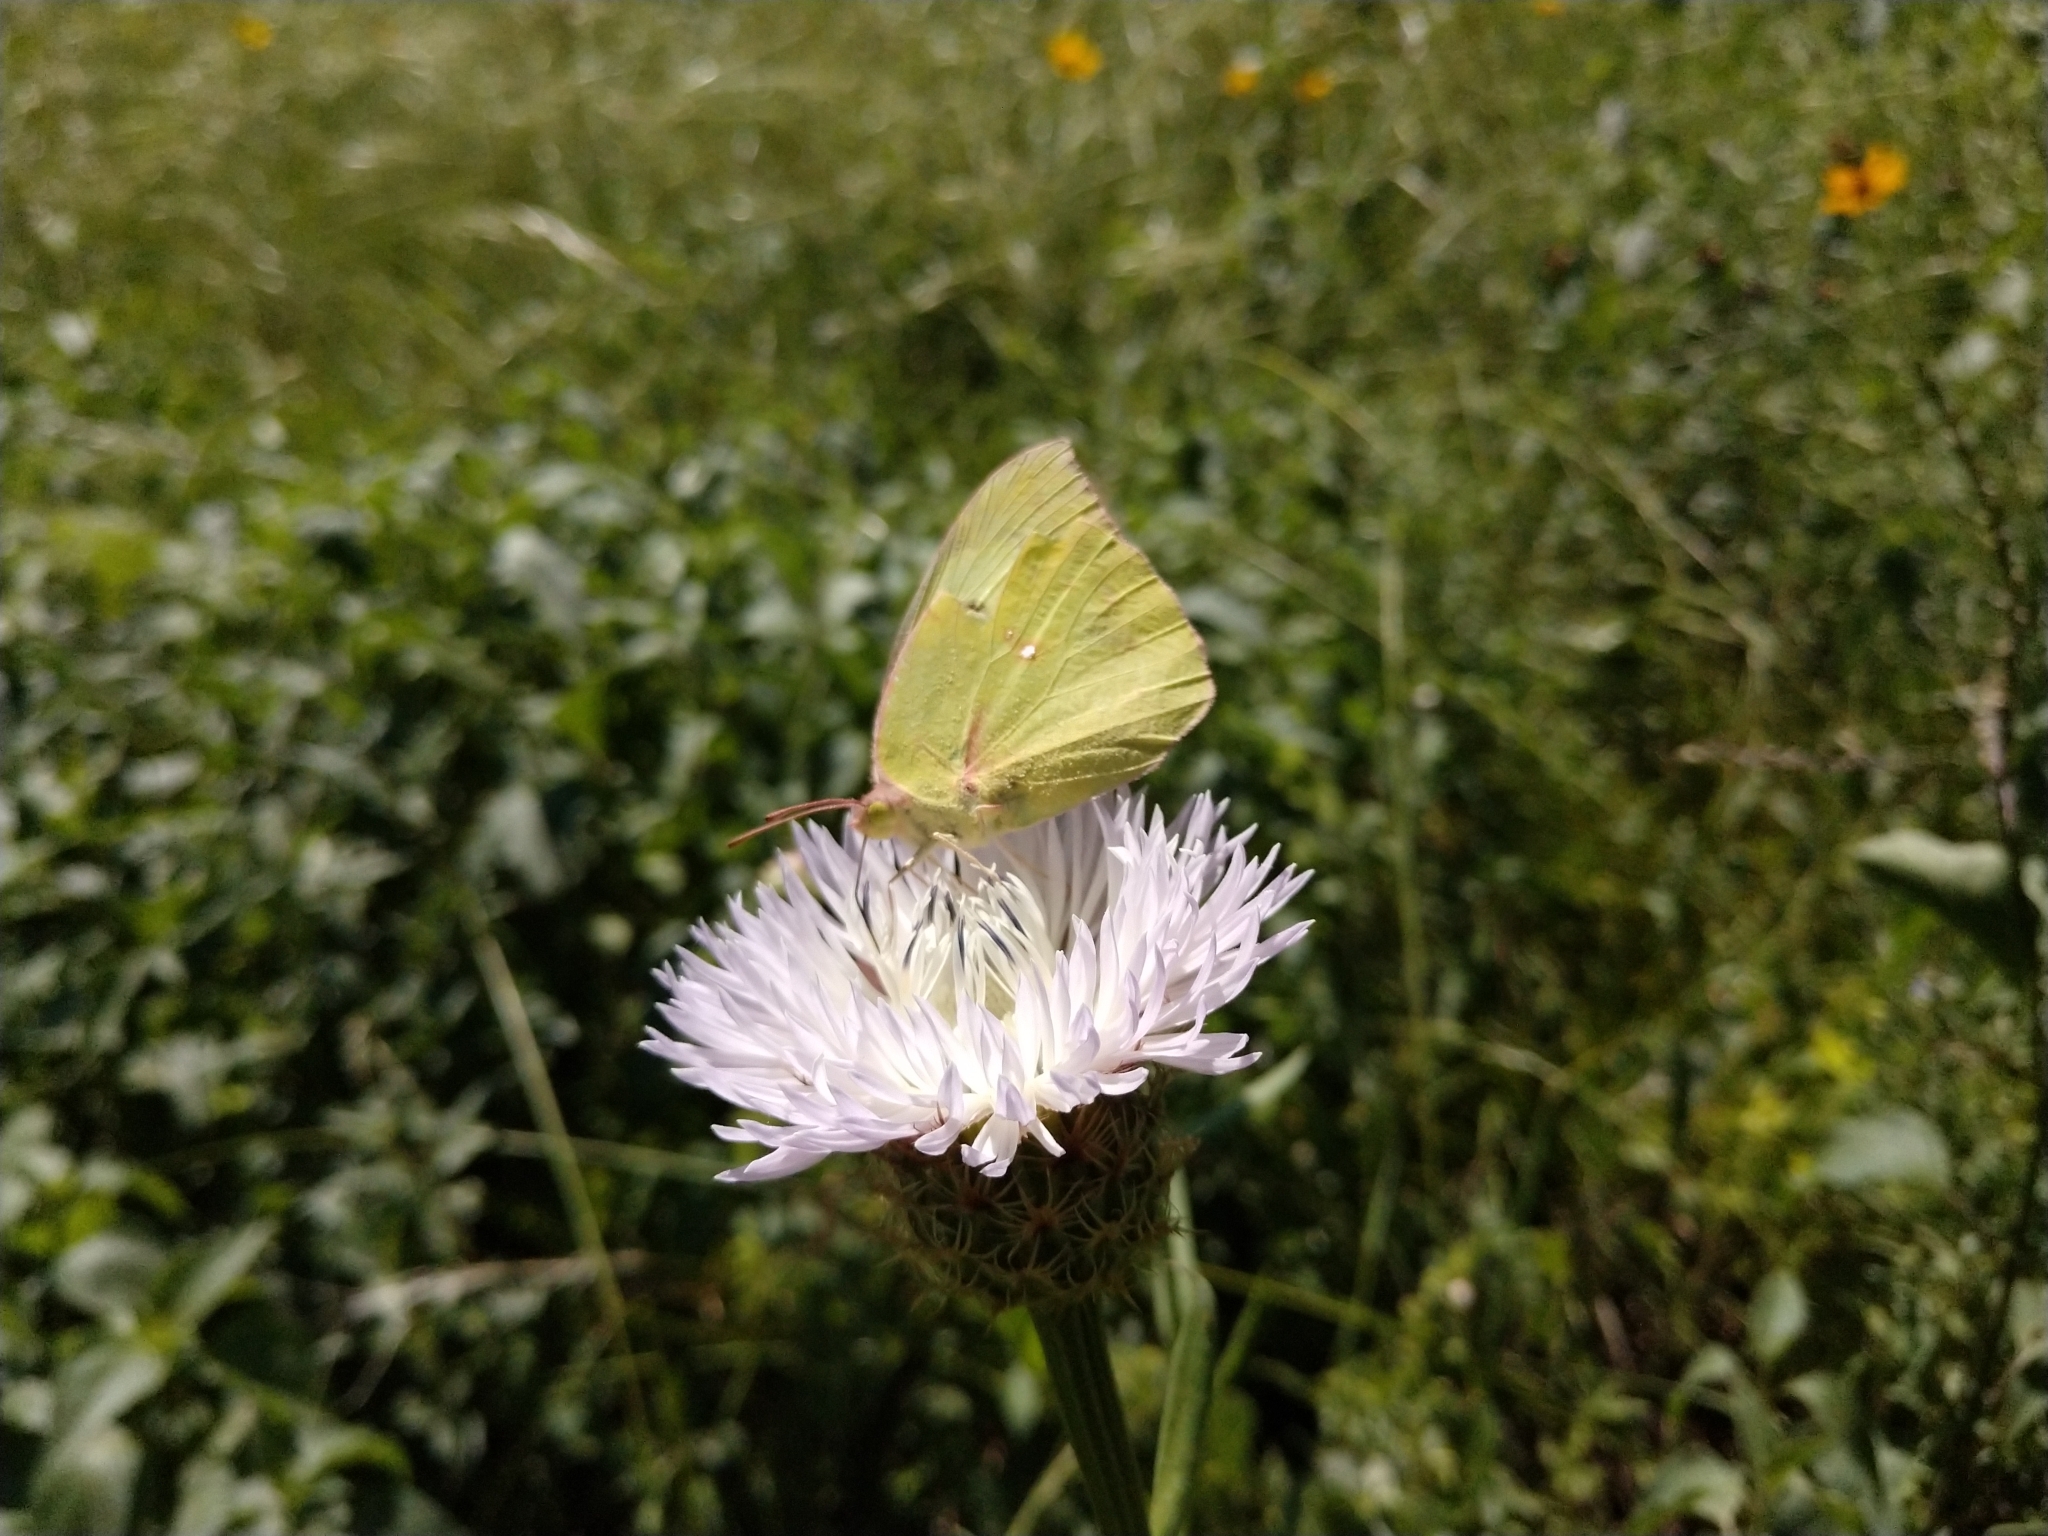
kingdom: Animalia
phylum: Arthropoda
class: Insecta
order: Lepidoptera
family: Pieridae
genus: Zerene
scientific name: Zerene cesonia
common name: Southern dogface
